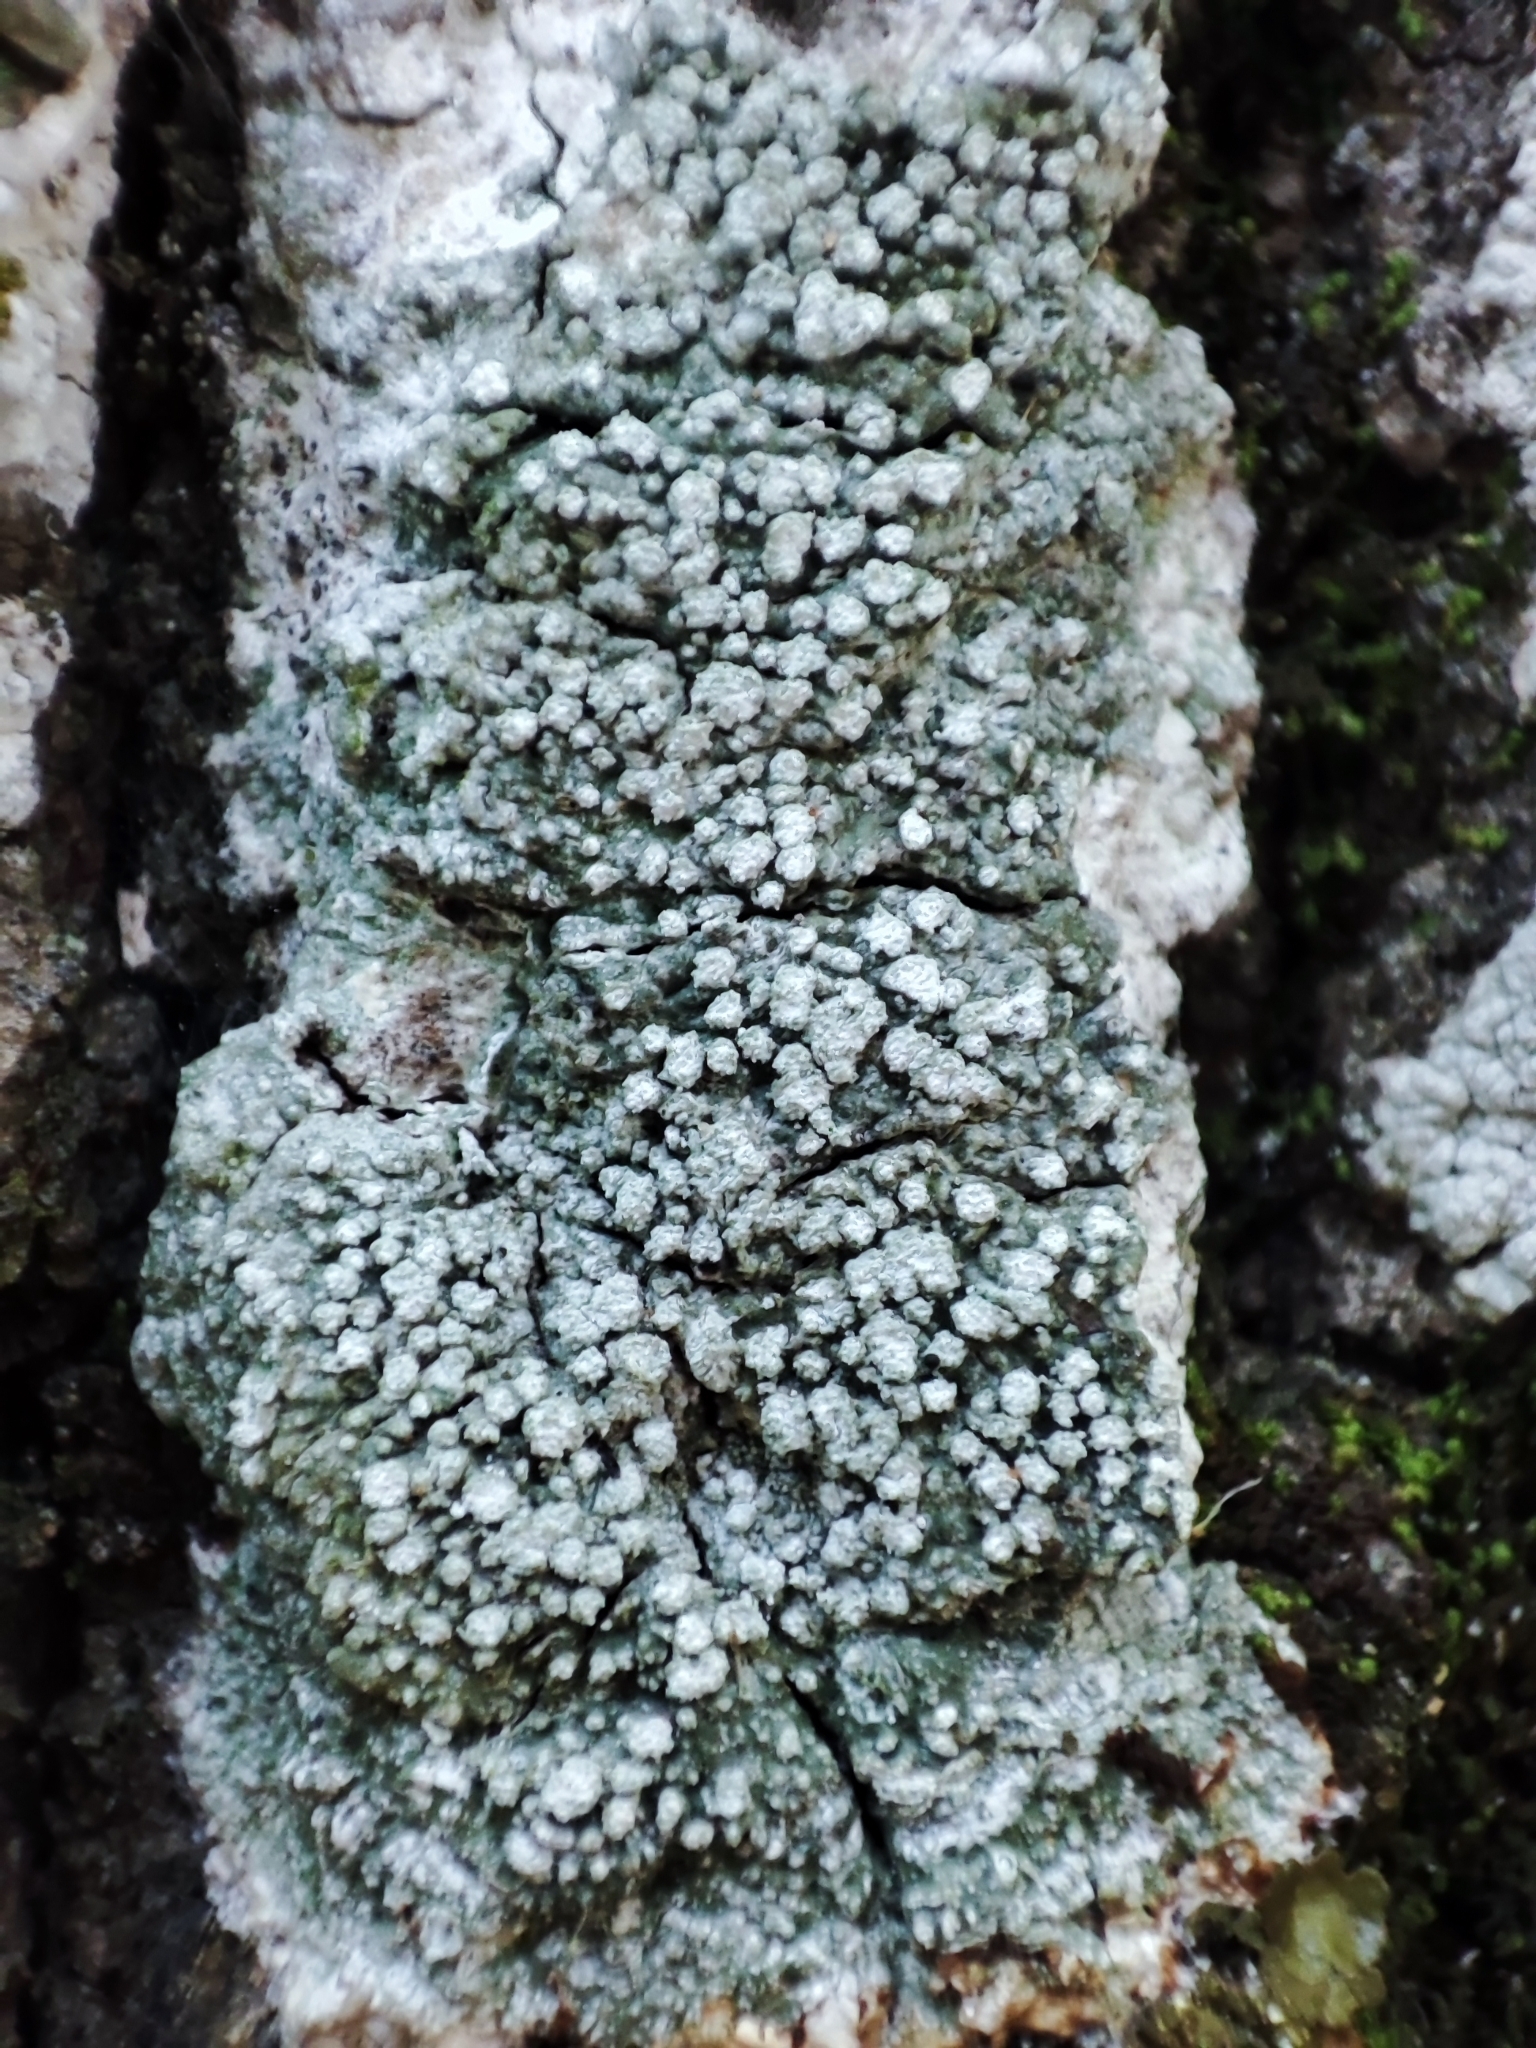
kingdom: Fungi
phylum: Ascomycota
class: Lecanoromycetes
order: Pertusariales
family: Pertusariaceae
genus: Lepra
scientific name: Lepra albescens
